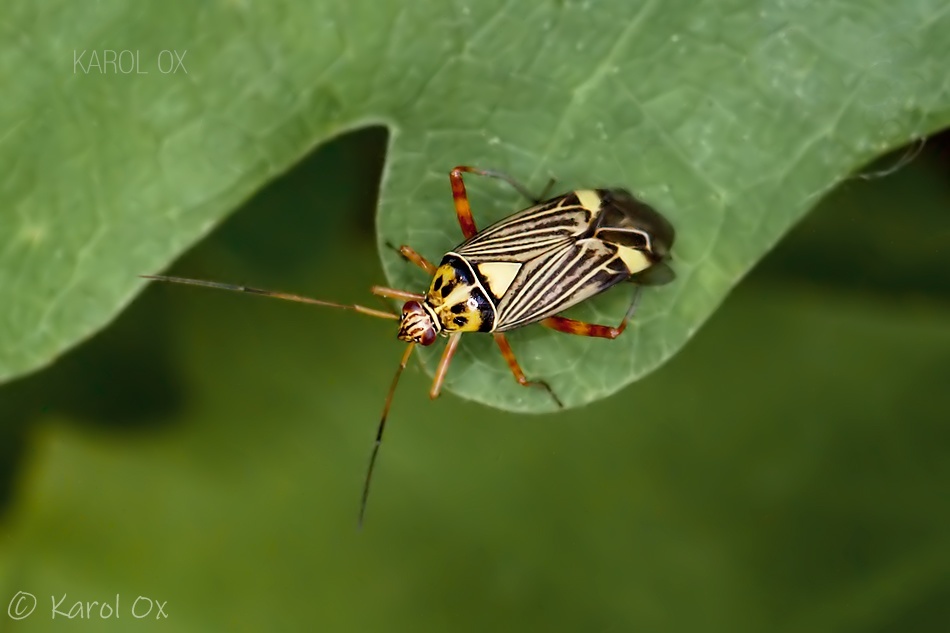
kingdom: Animalia
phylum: Arthropoda
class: Insecta
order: Hemiptera
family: Miridae
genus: Rhabdomiris
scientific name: Rhabdomiris striatellus
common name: Plant bug
